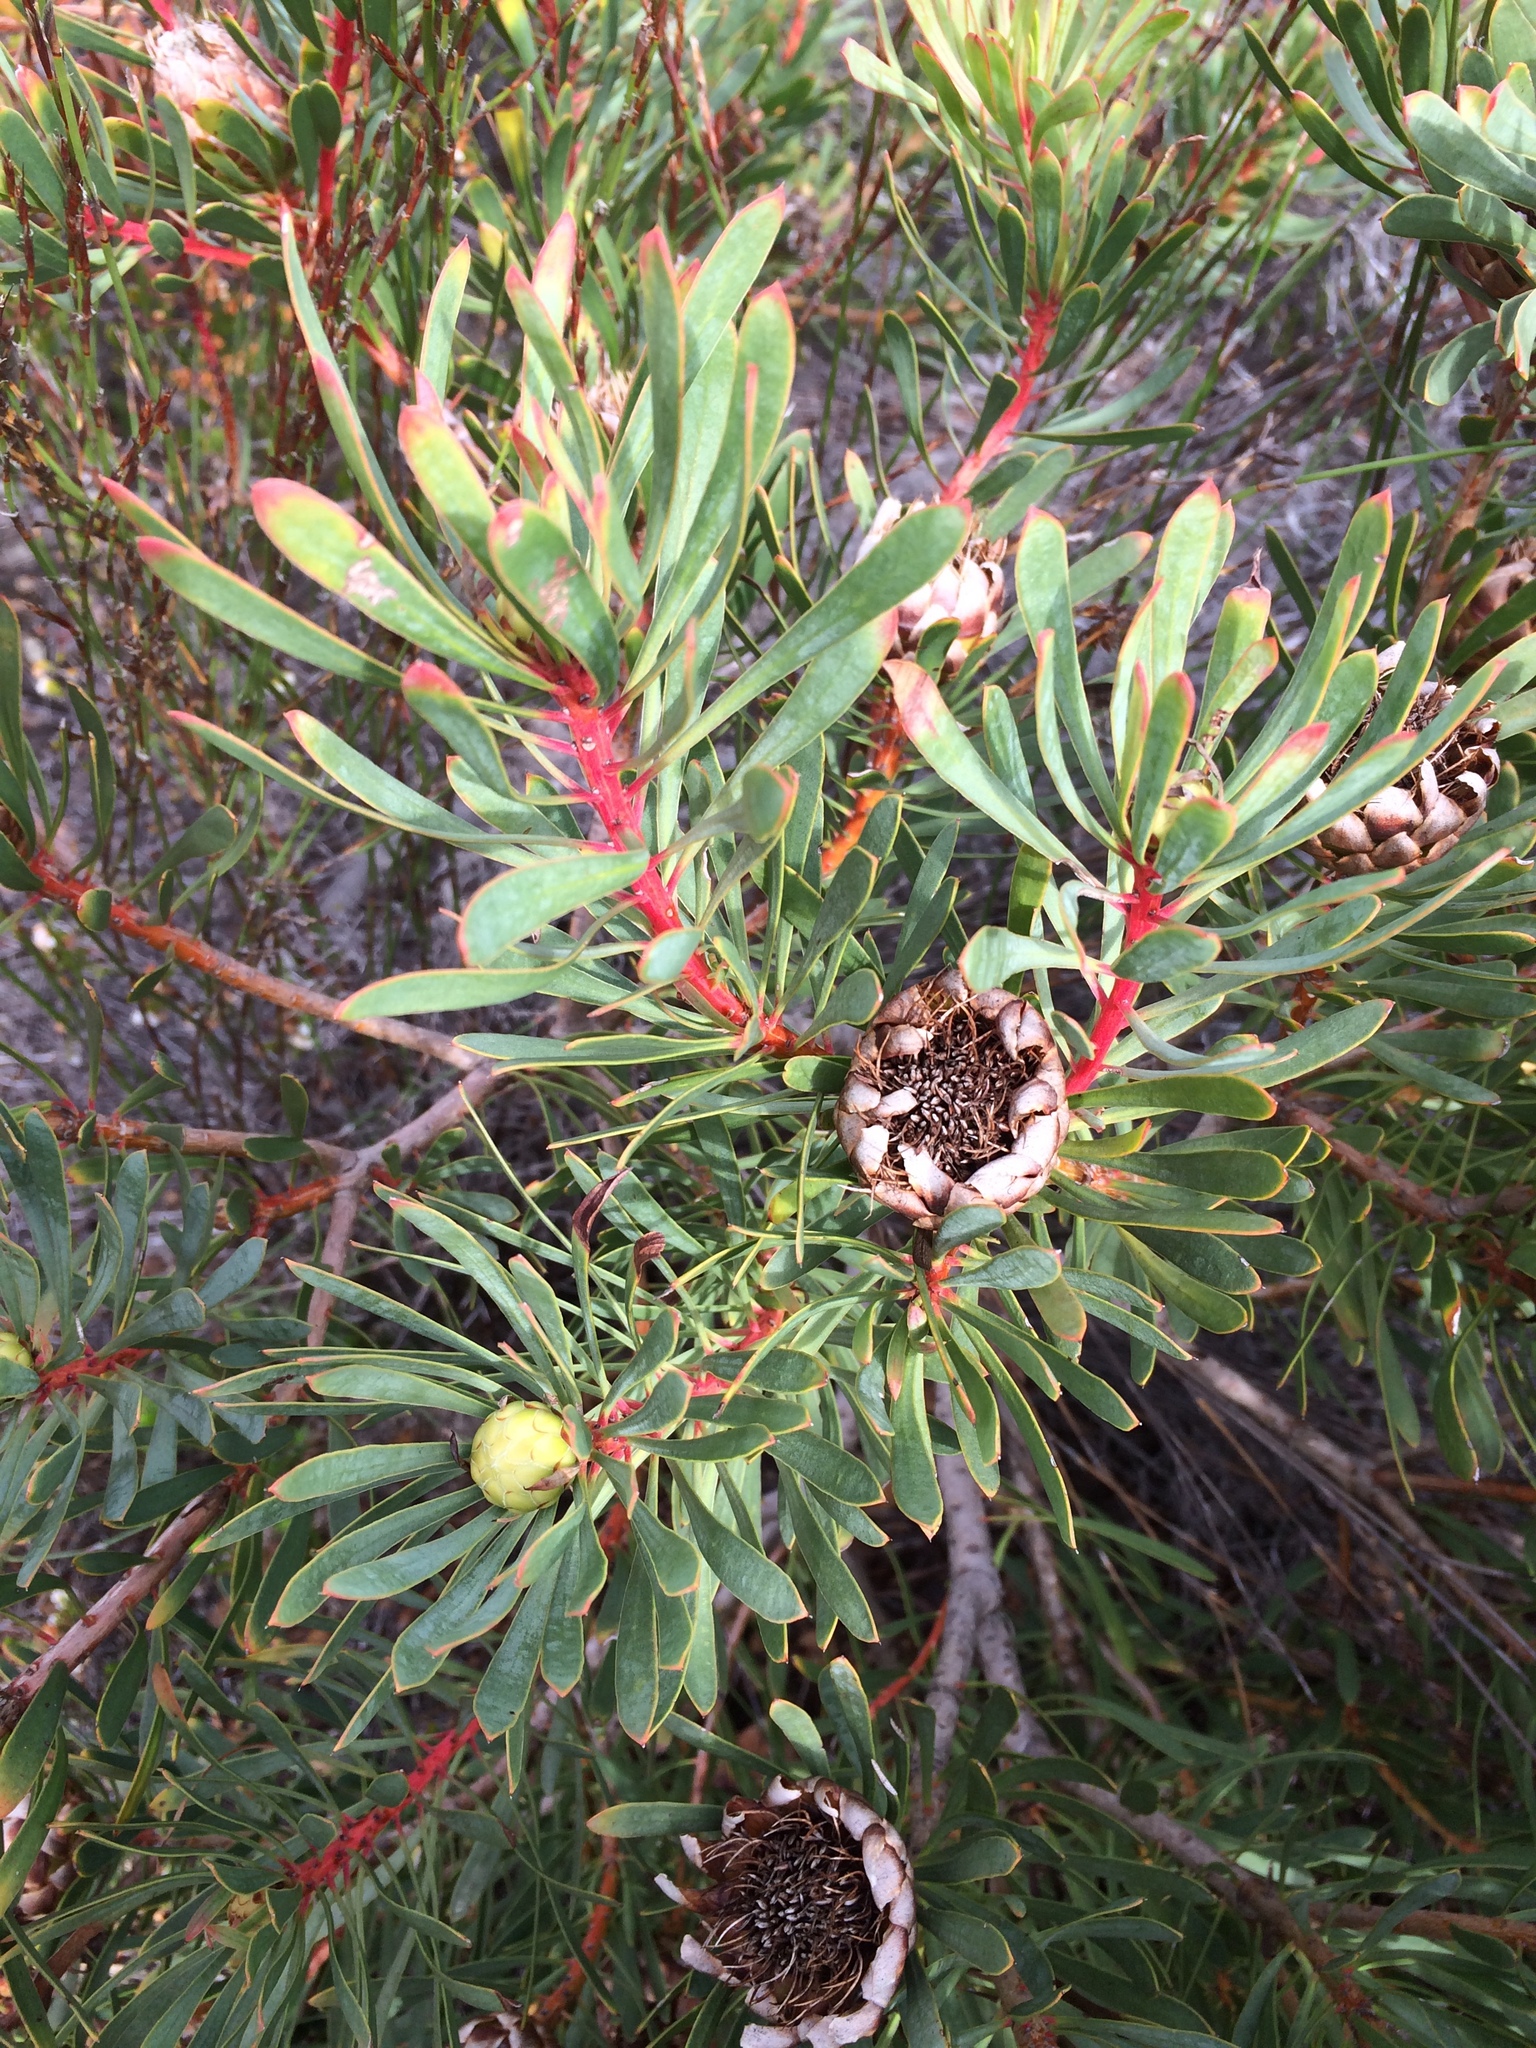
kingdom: Plantae
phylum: Tracheophyta
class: Magnoliopsida
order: Proteales
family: Proteaceae
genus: Protea
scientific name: Protea scolymocephala
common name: Thistle sugarbush
